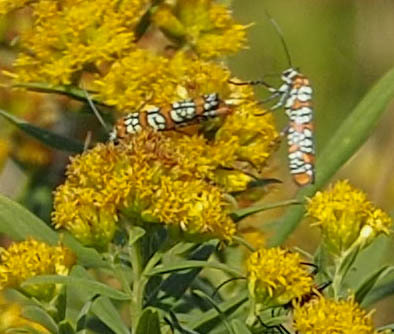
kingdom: Animalia
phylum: Arthropoda
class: Insecta
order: Lepidoptera
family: Attevidae
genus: Atteva
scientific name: Atteva punctella
